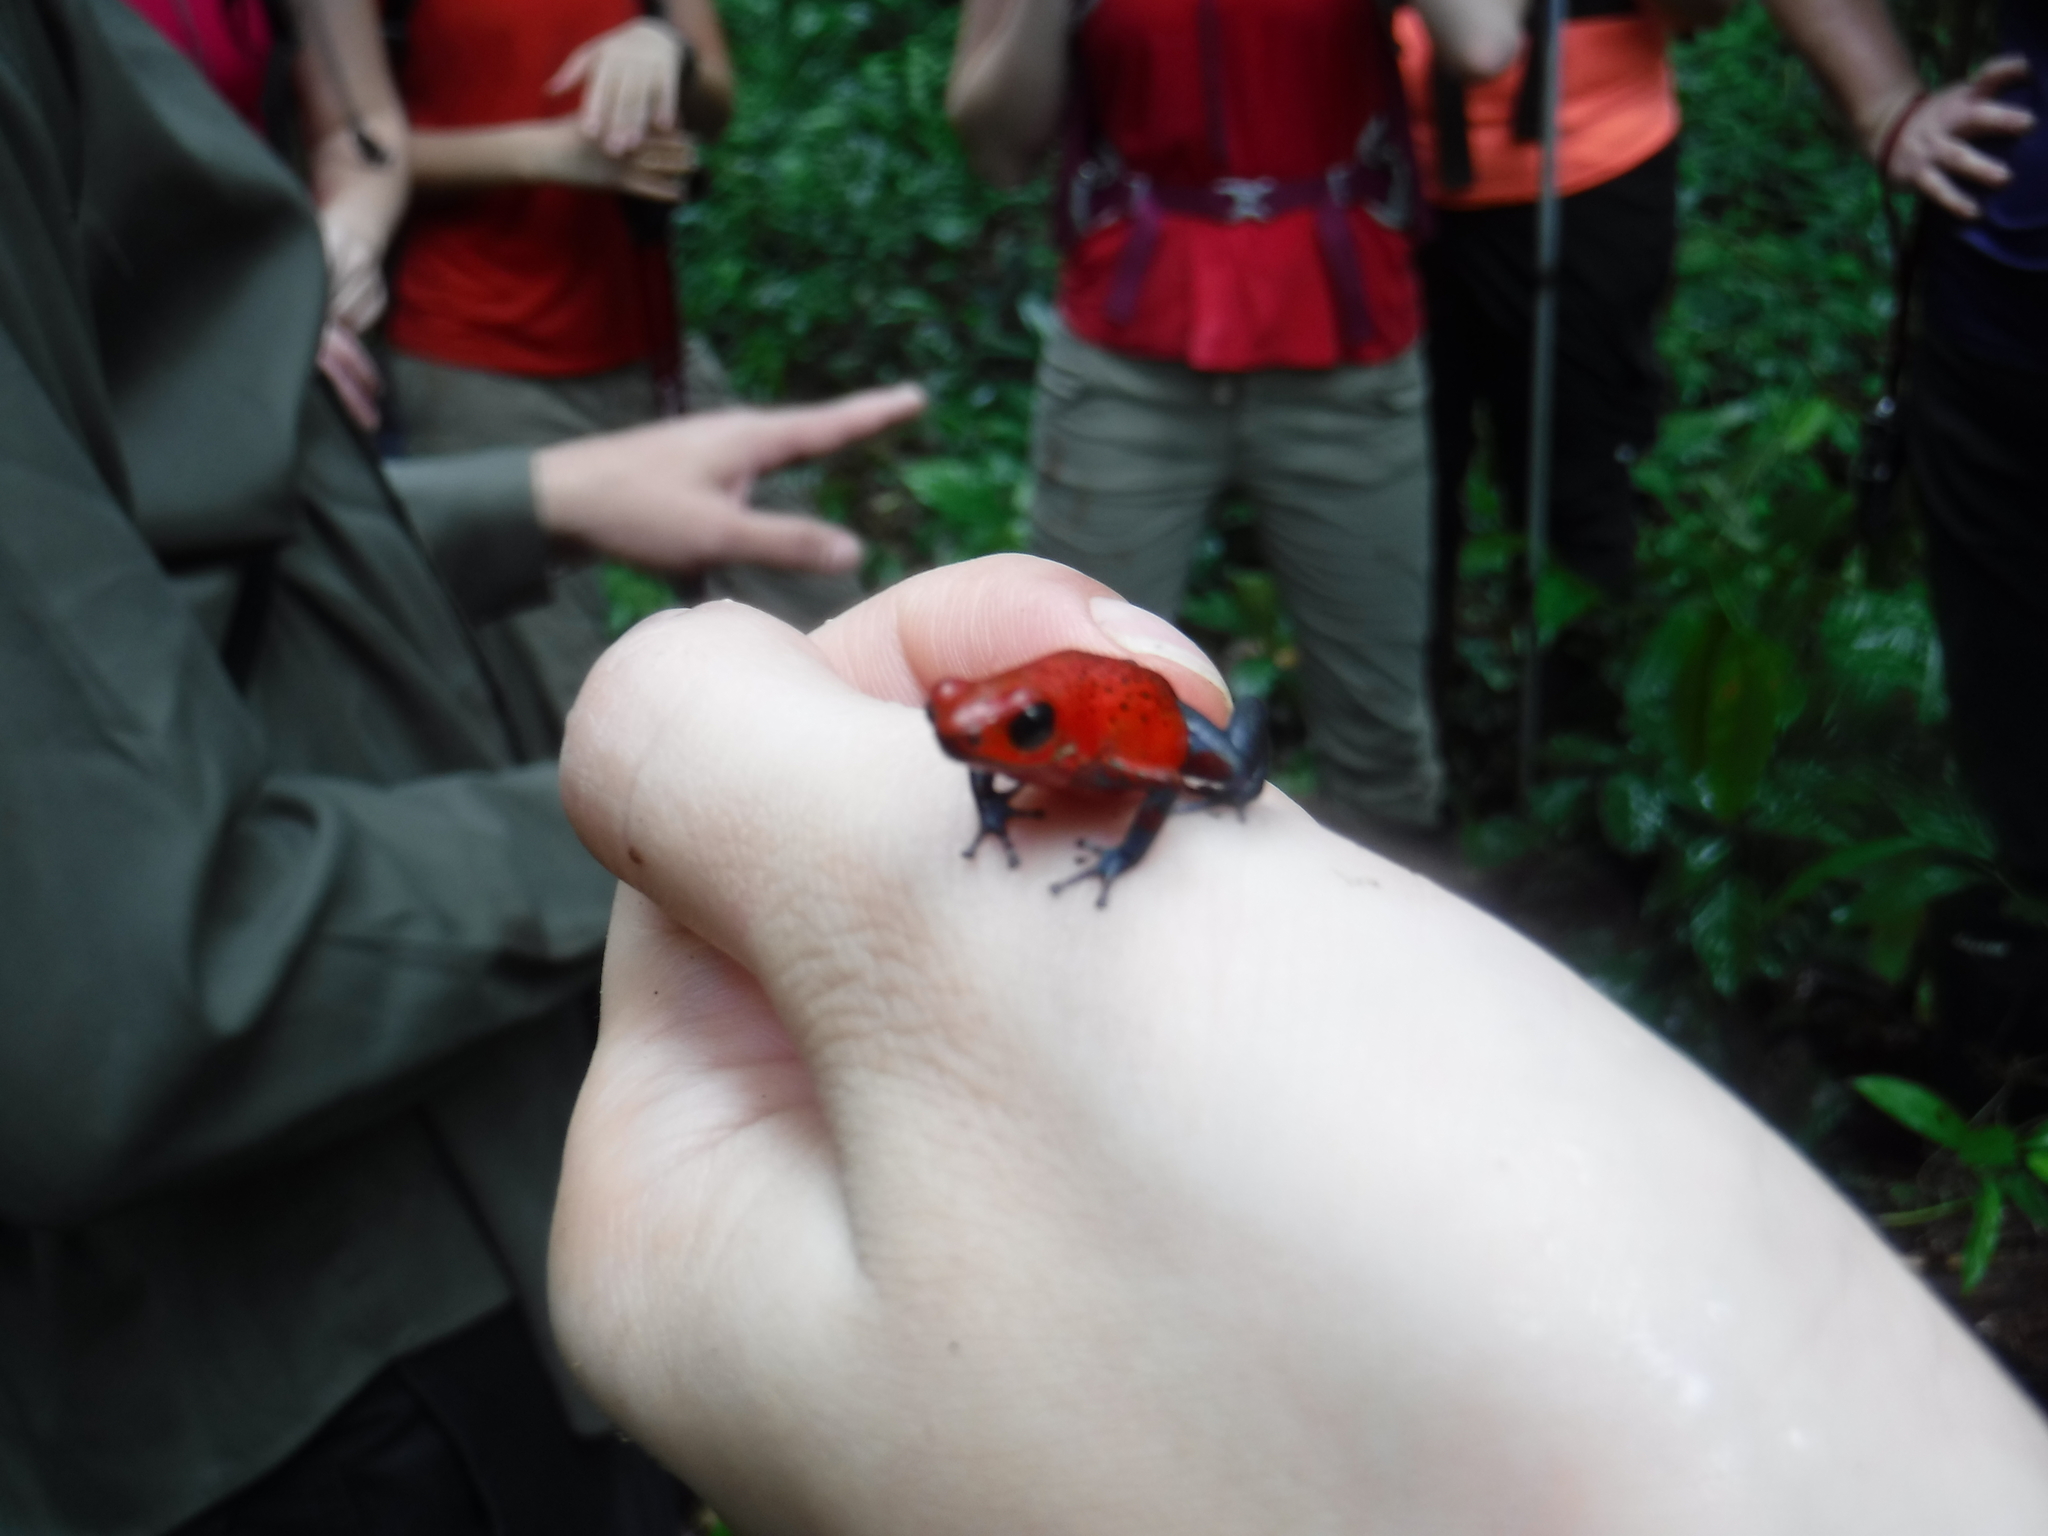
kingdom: Animalia
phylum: Chordata
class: Amphibia
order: Anura
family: Dendrobatidae
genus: Oophaga
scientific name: Oophaga pumilio
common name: Flaming poison frog
